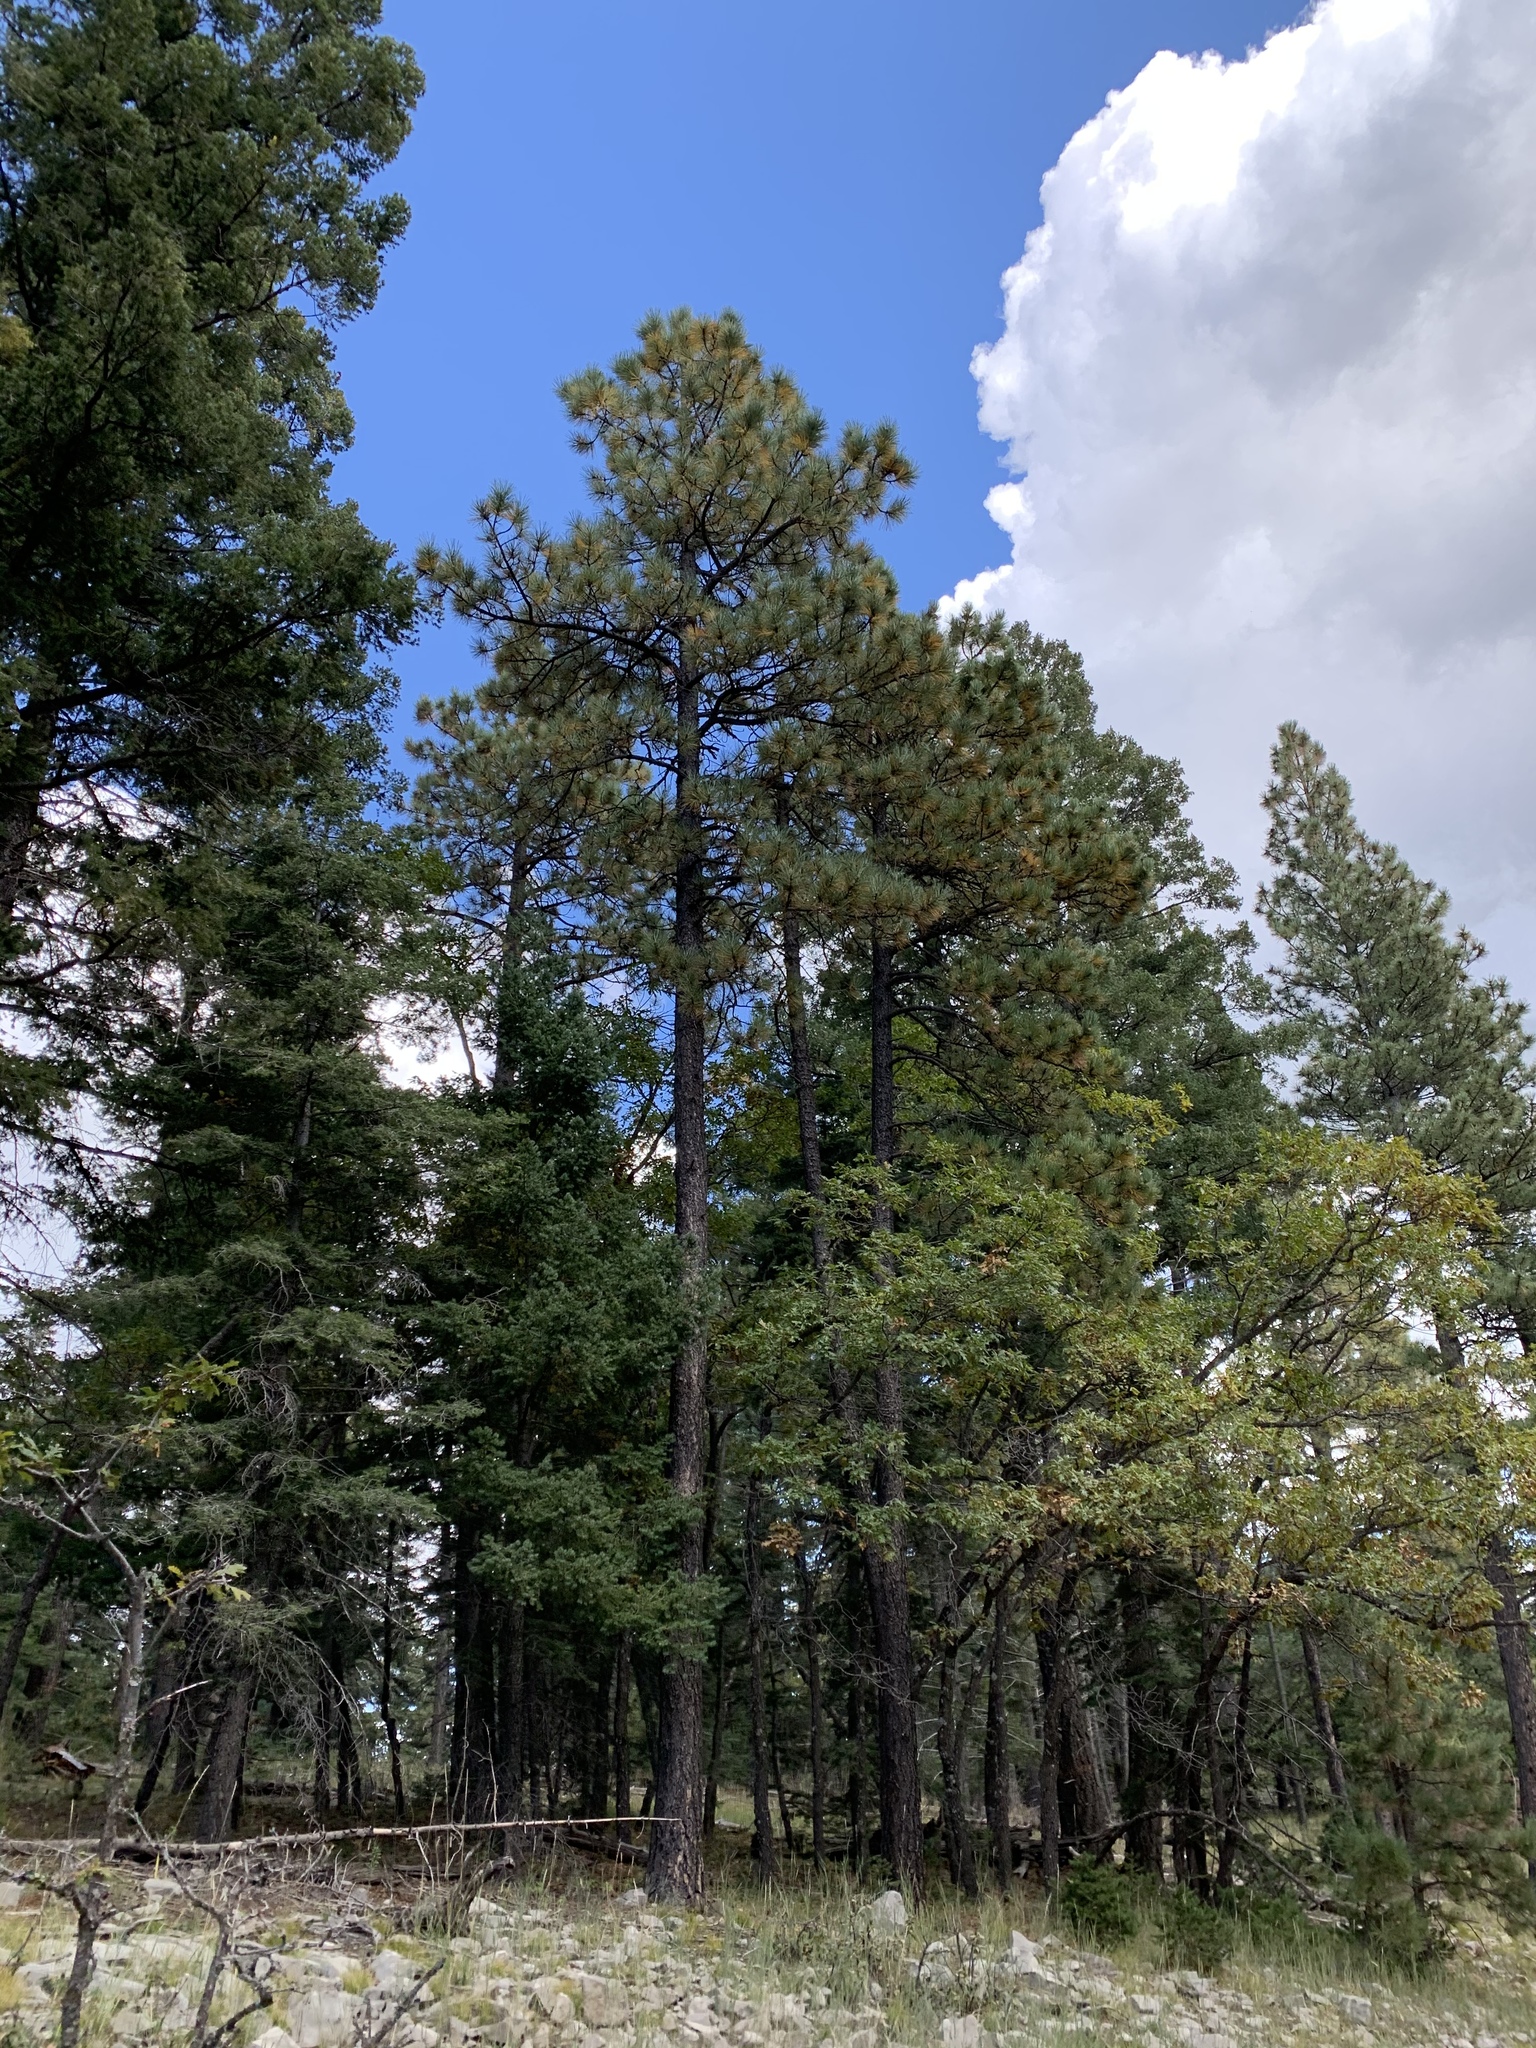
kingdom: Plantae
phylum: Tracheophyta
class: Pinopsida
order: Pinales
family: Pinaceae
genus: Pinus
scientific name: Pinus ponderosa
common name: Western yellow-pine
